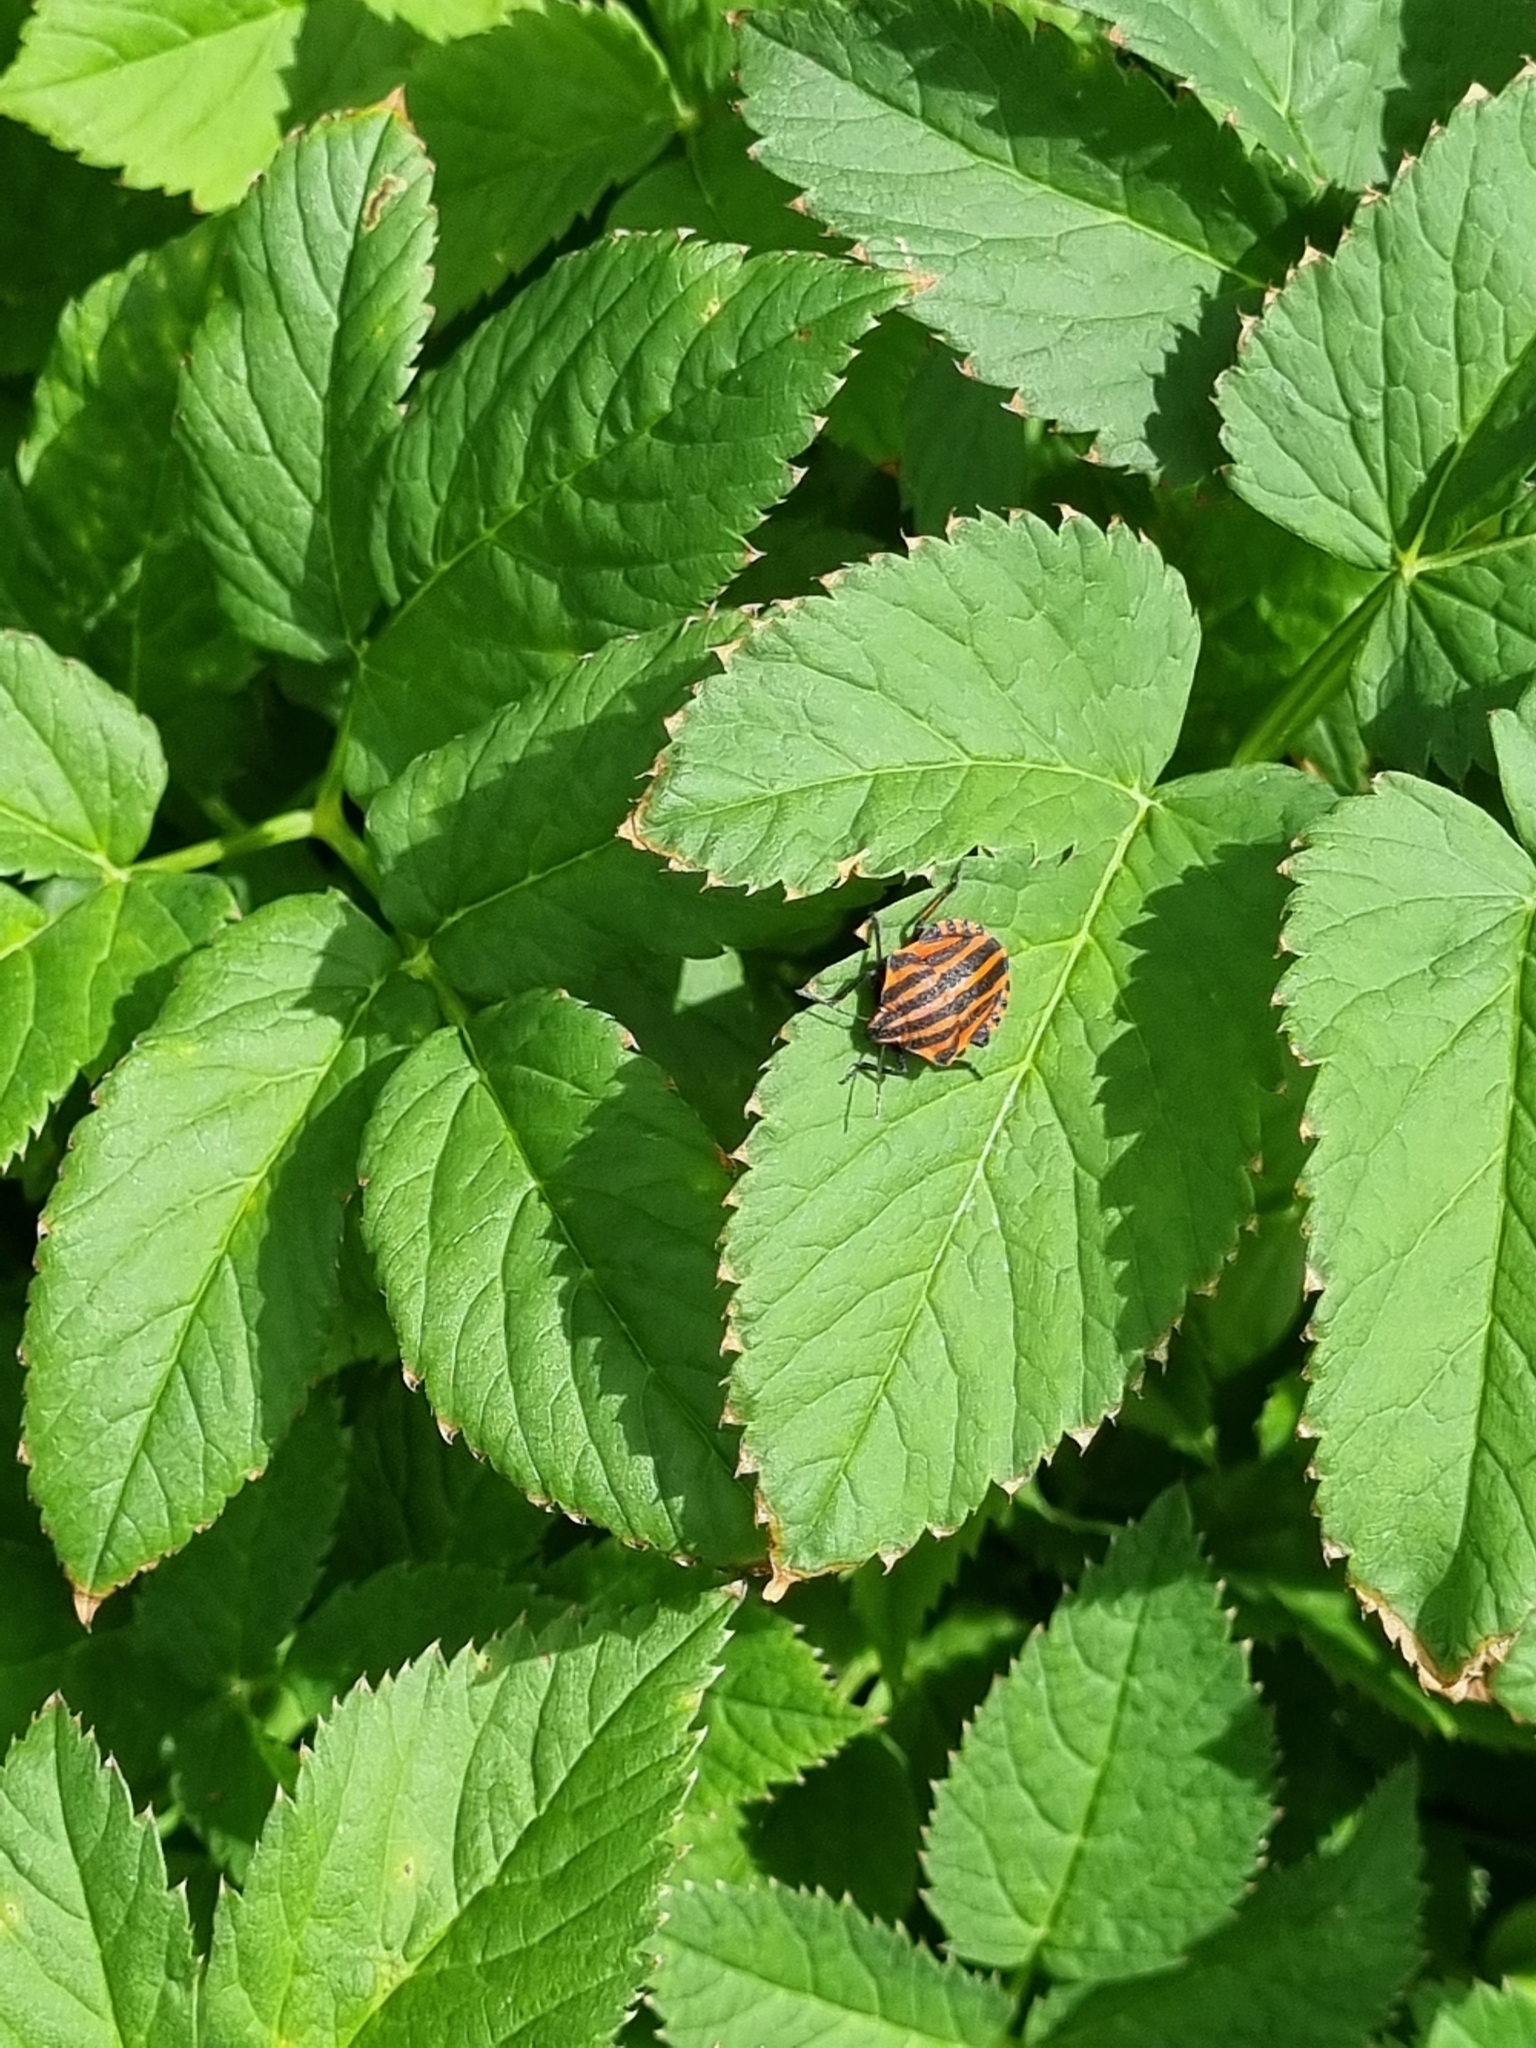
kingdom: Animalia
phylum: Arthropoda
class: Insecta
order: Hemiptera
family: Pentatomidae
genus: Graphosoma
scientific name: Graphosoma italicum
